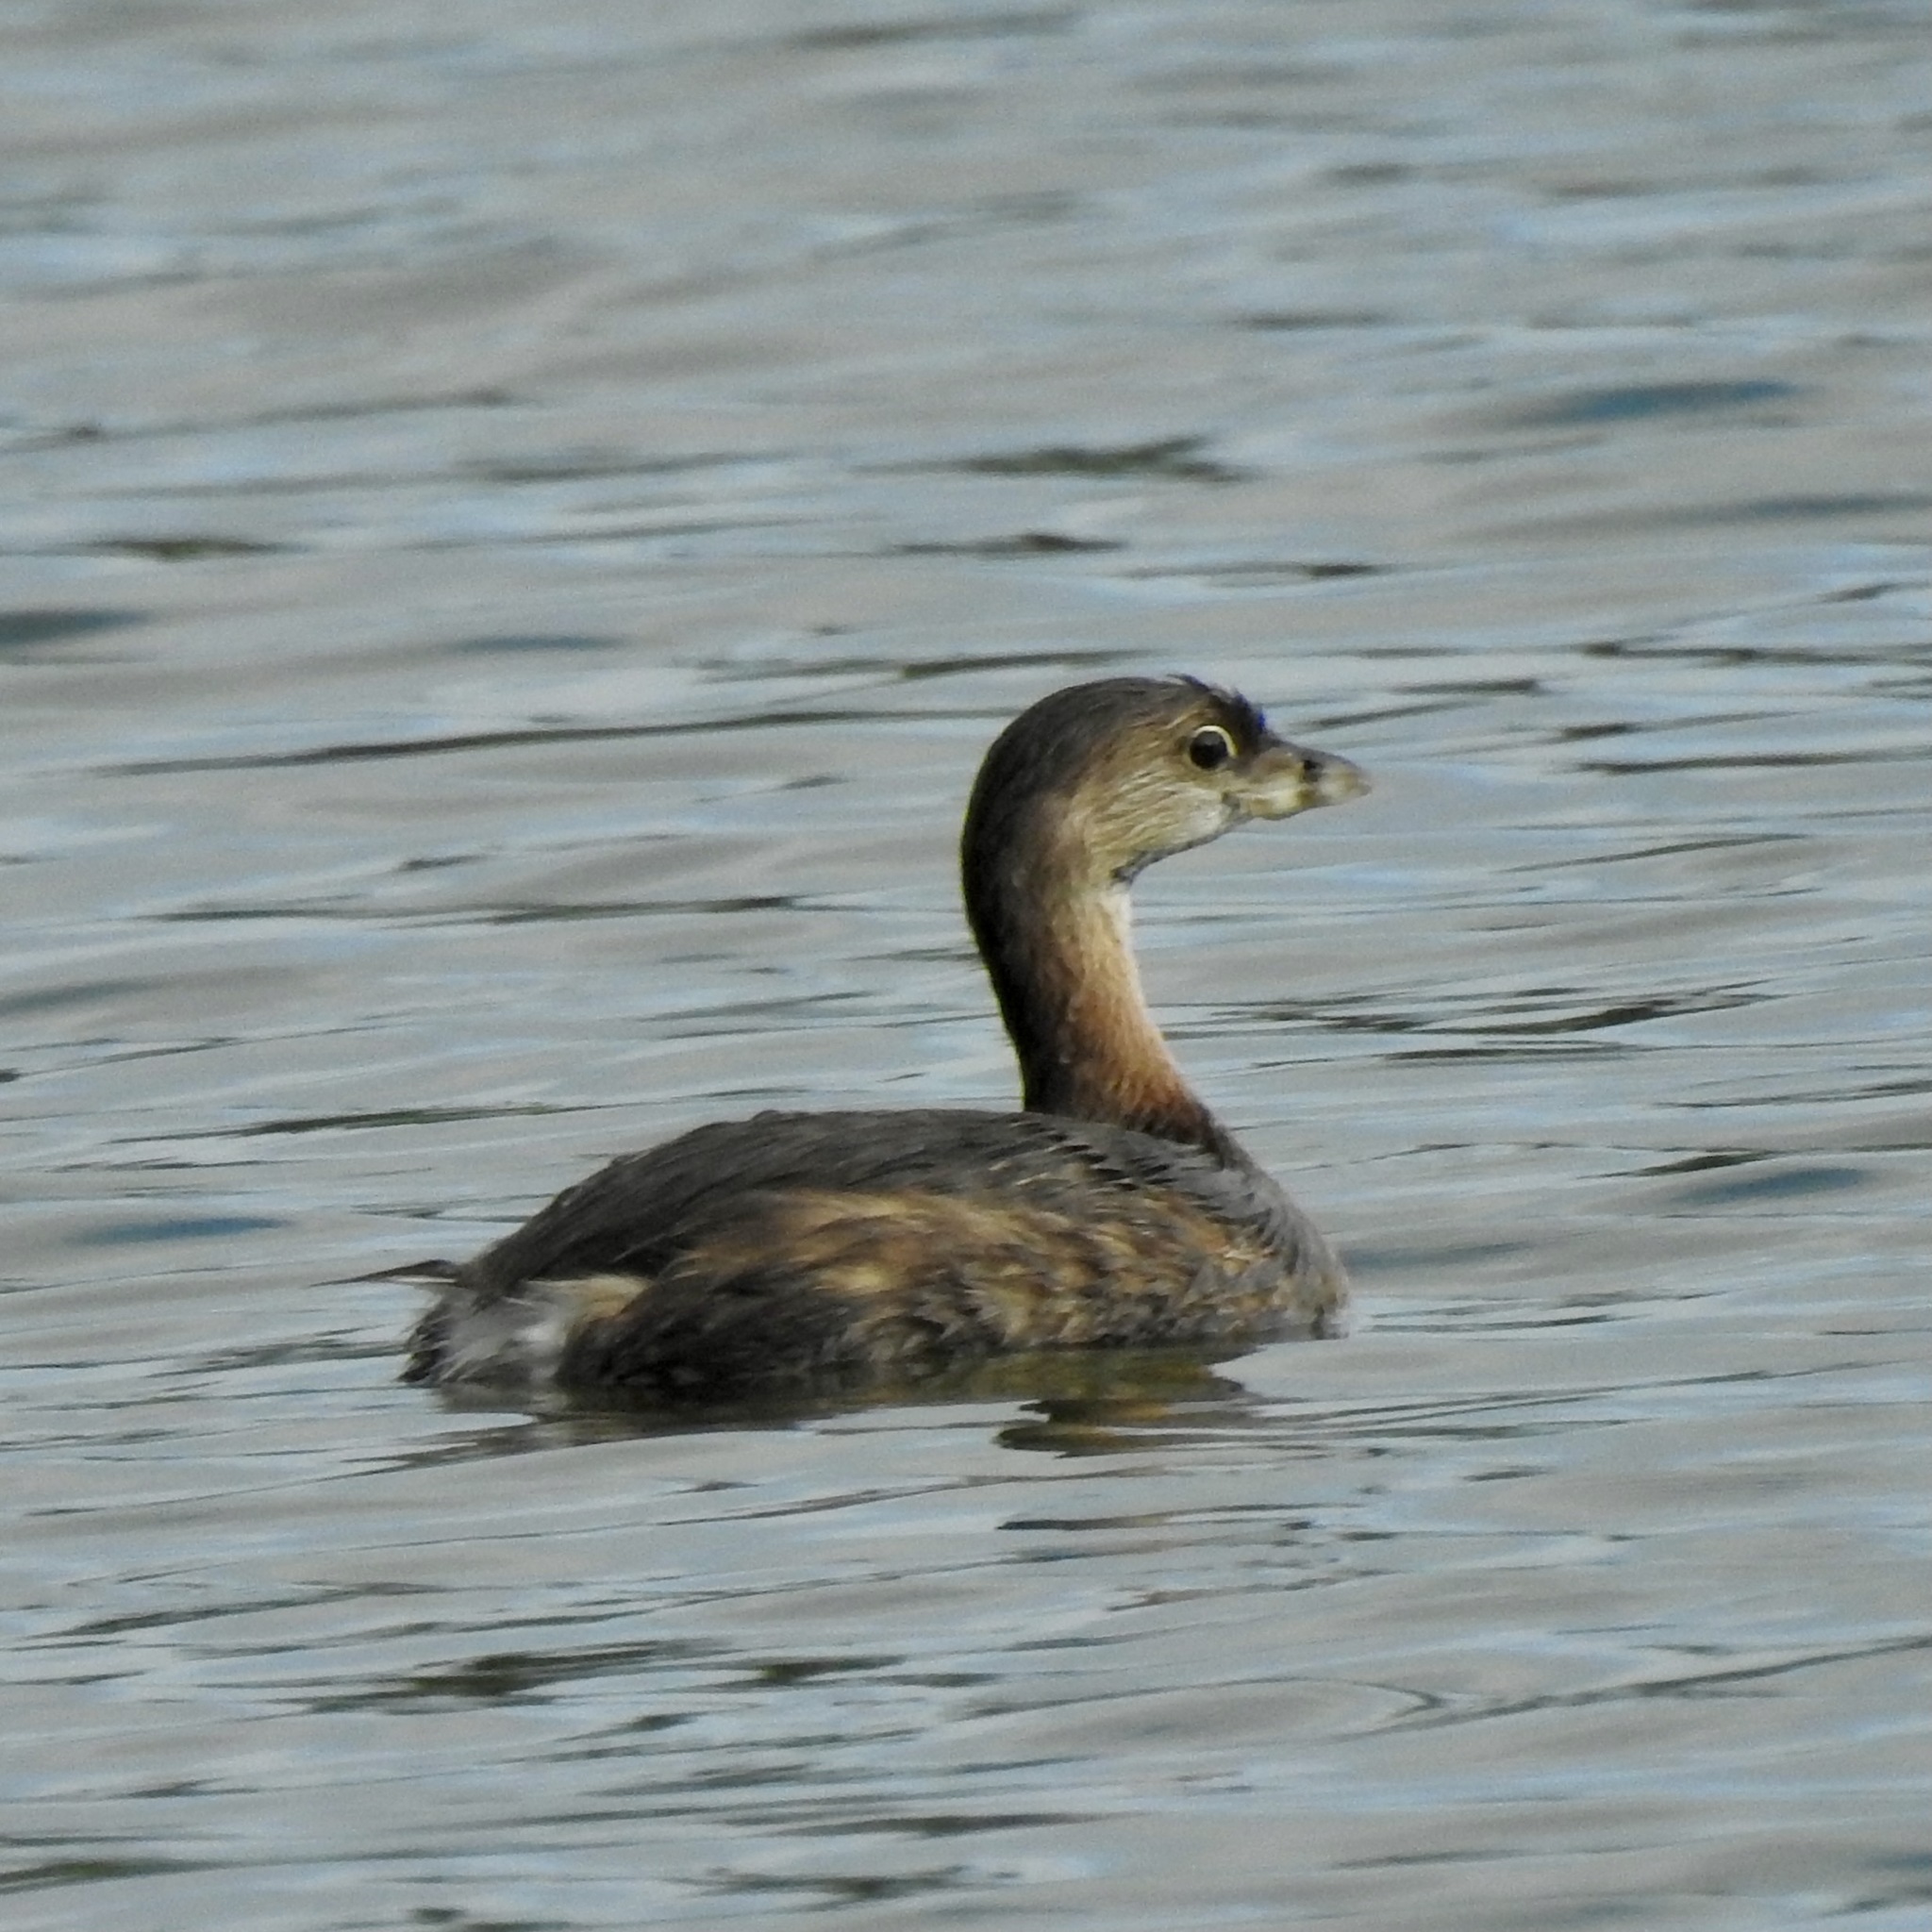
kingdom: Animalia
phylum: Chordata
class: Aves
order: Podicipediformes
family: Podicipedidae
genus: Podilymbus
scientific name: Podilymbus podiceps
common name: Pied-billed grebe
